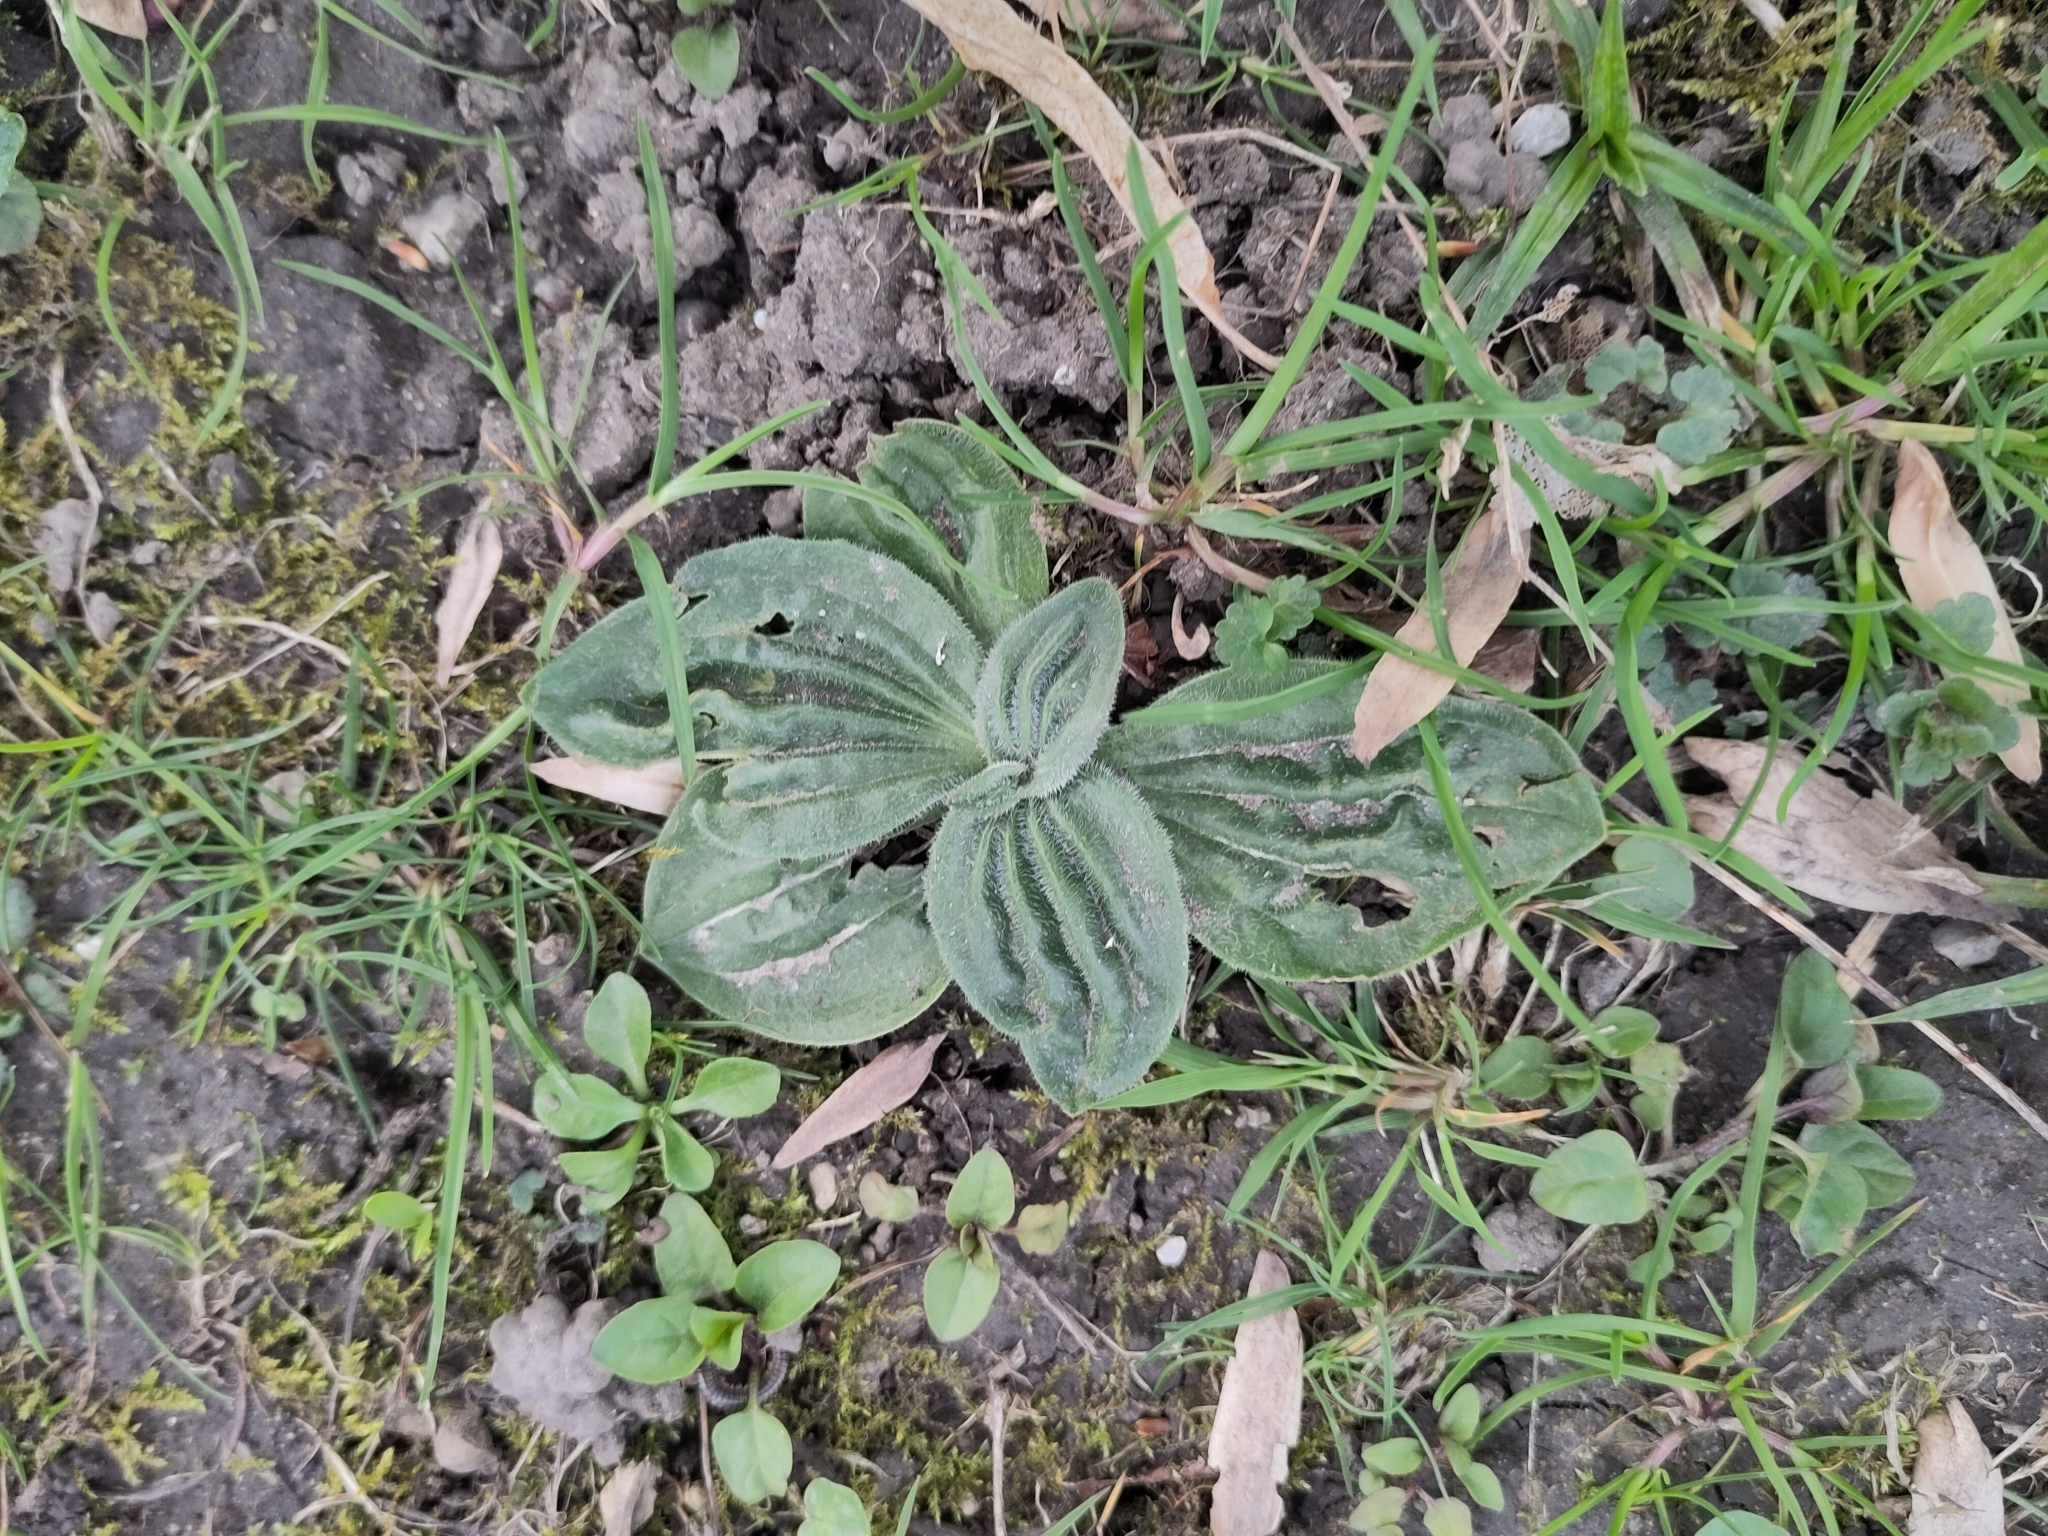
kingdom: Plantae
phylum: Tracheophyta
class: Magnoliopsida
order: Lamiales
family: Plantaginaceae
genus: Plantago
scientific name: Plantago media
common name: Hoary plantain
